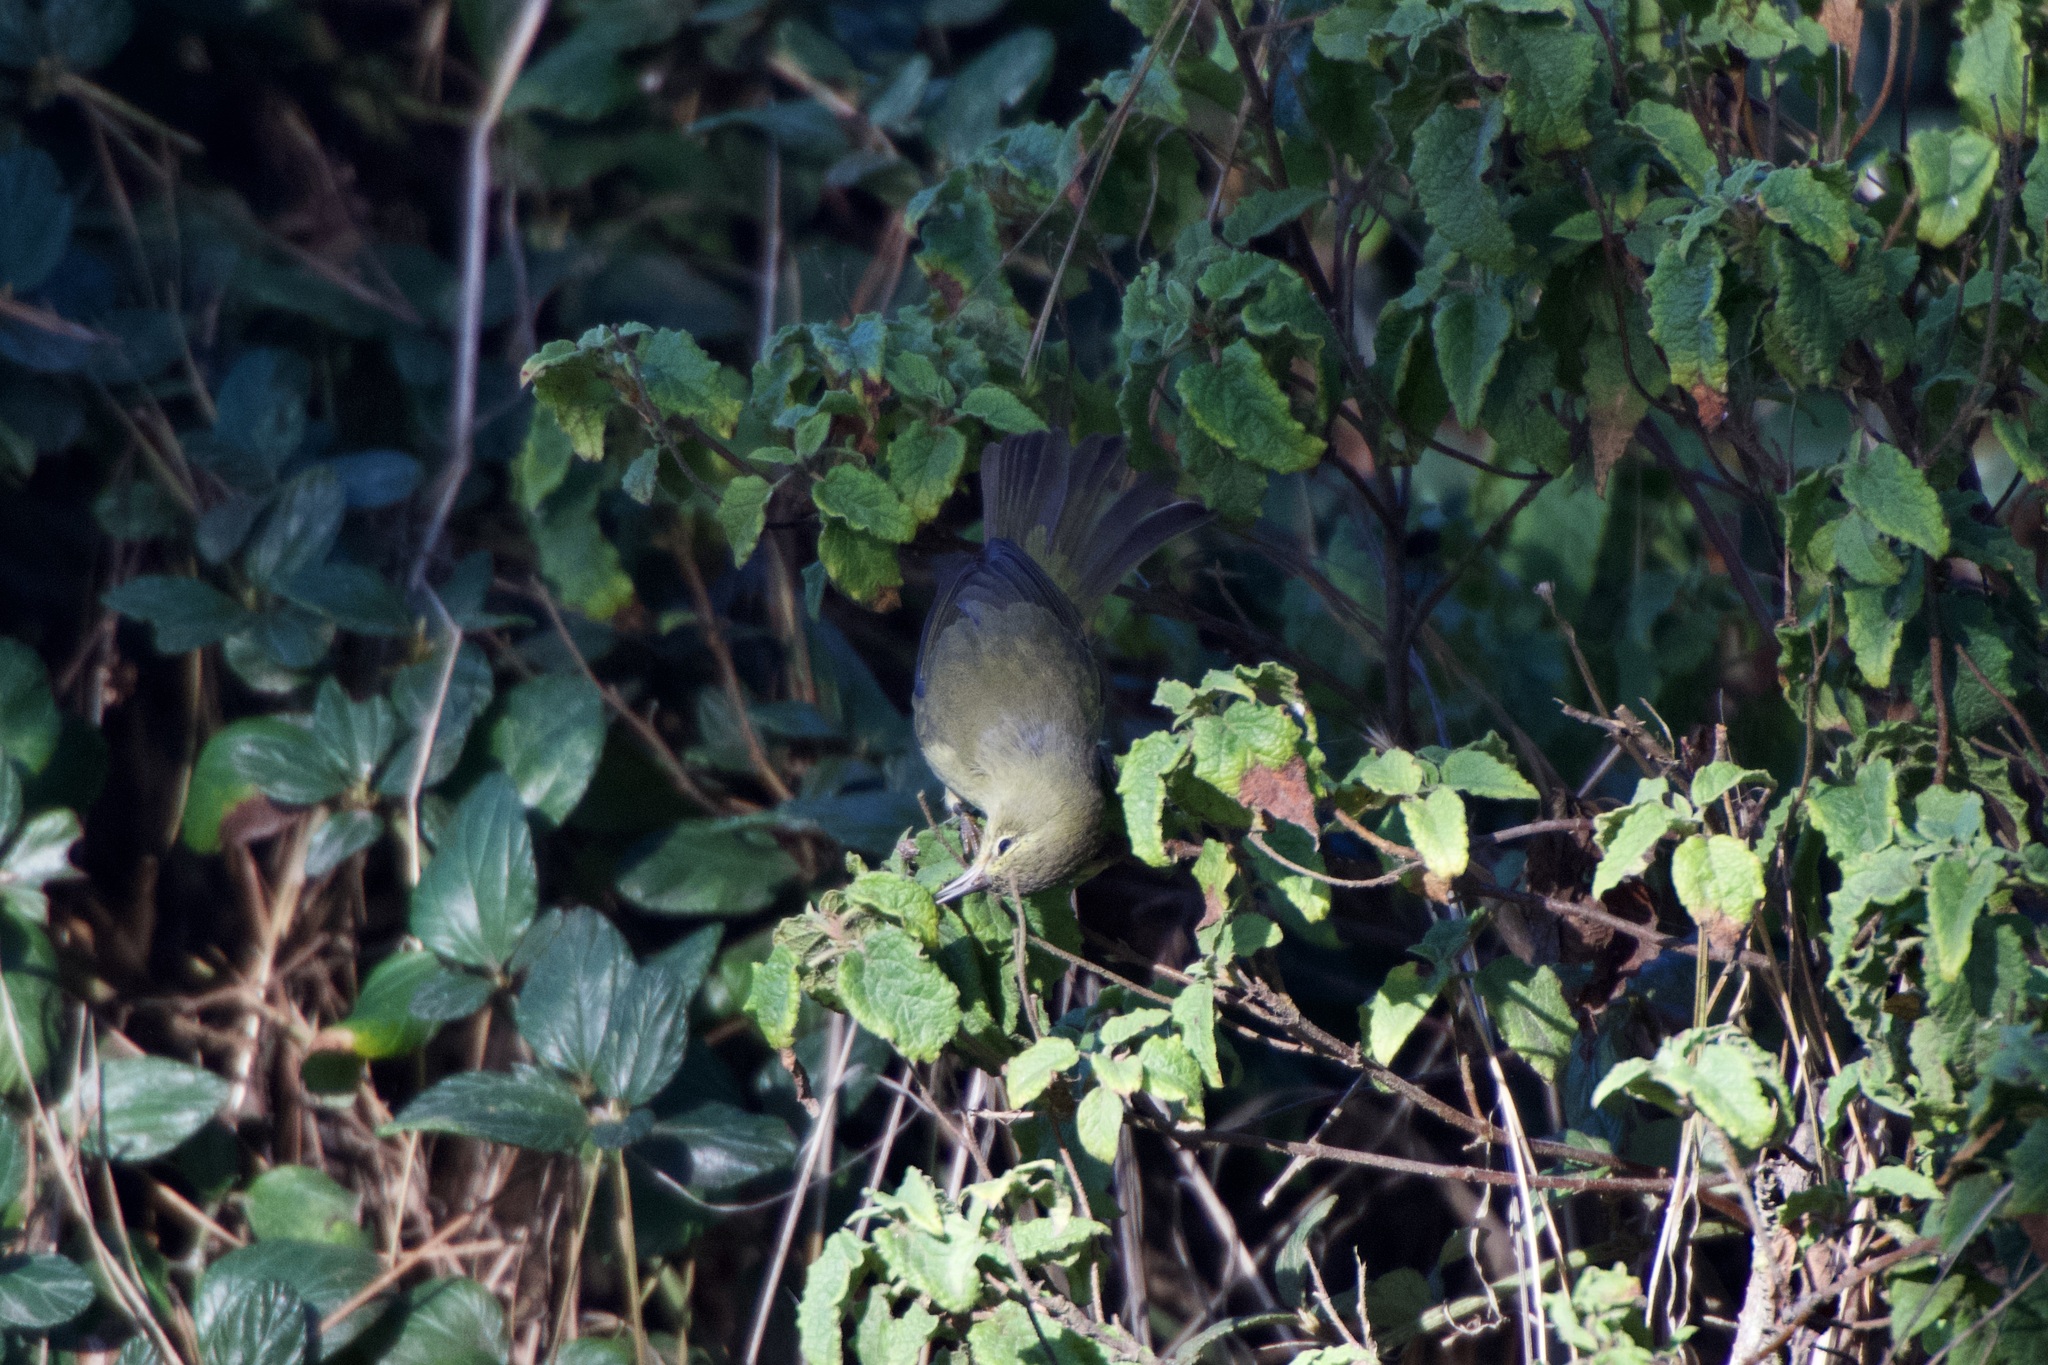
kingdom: Animalia
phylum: Chordata
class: Aves
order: Passeriformes
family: Parulidae
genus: Leiothlypis
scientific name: Leiothlypis celata
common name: Orange-crowned warbler
